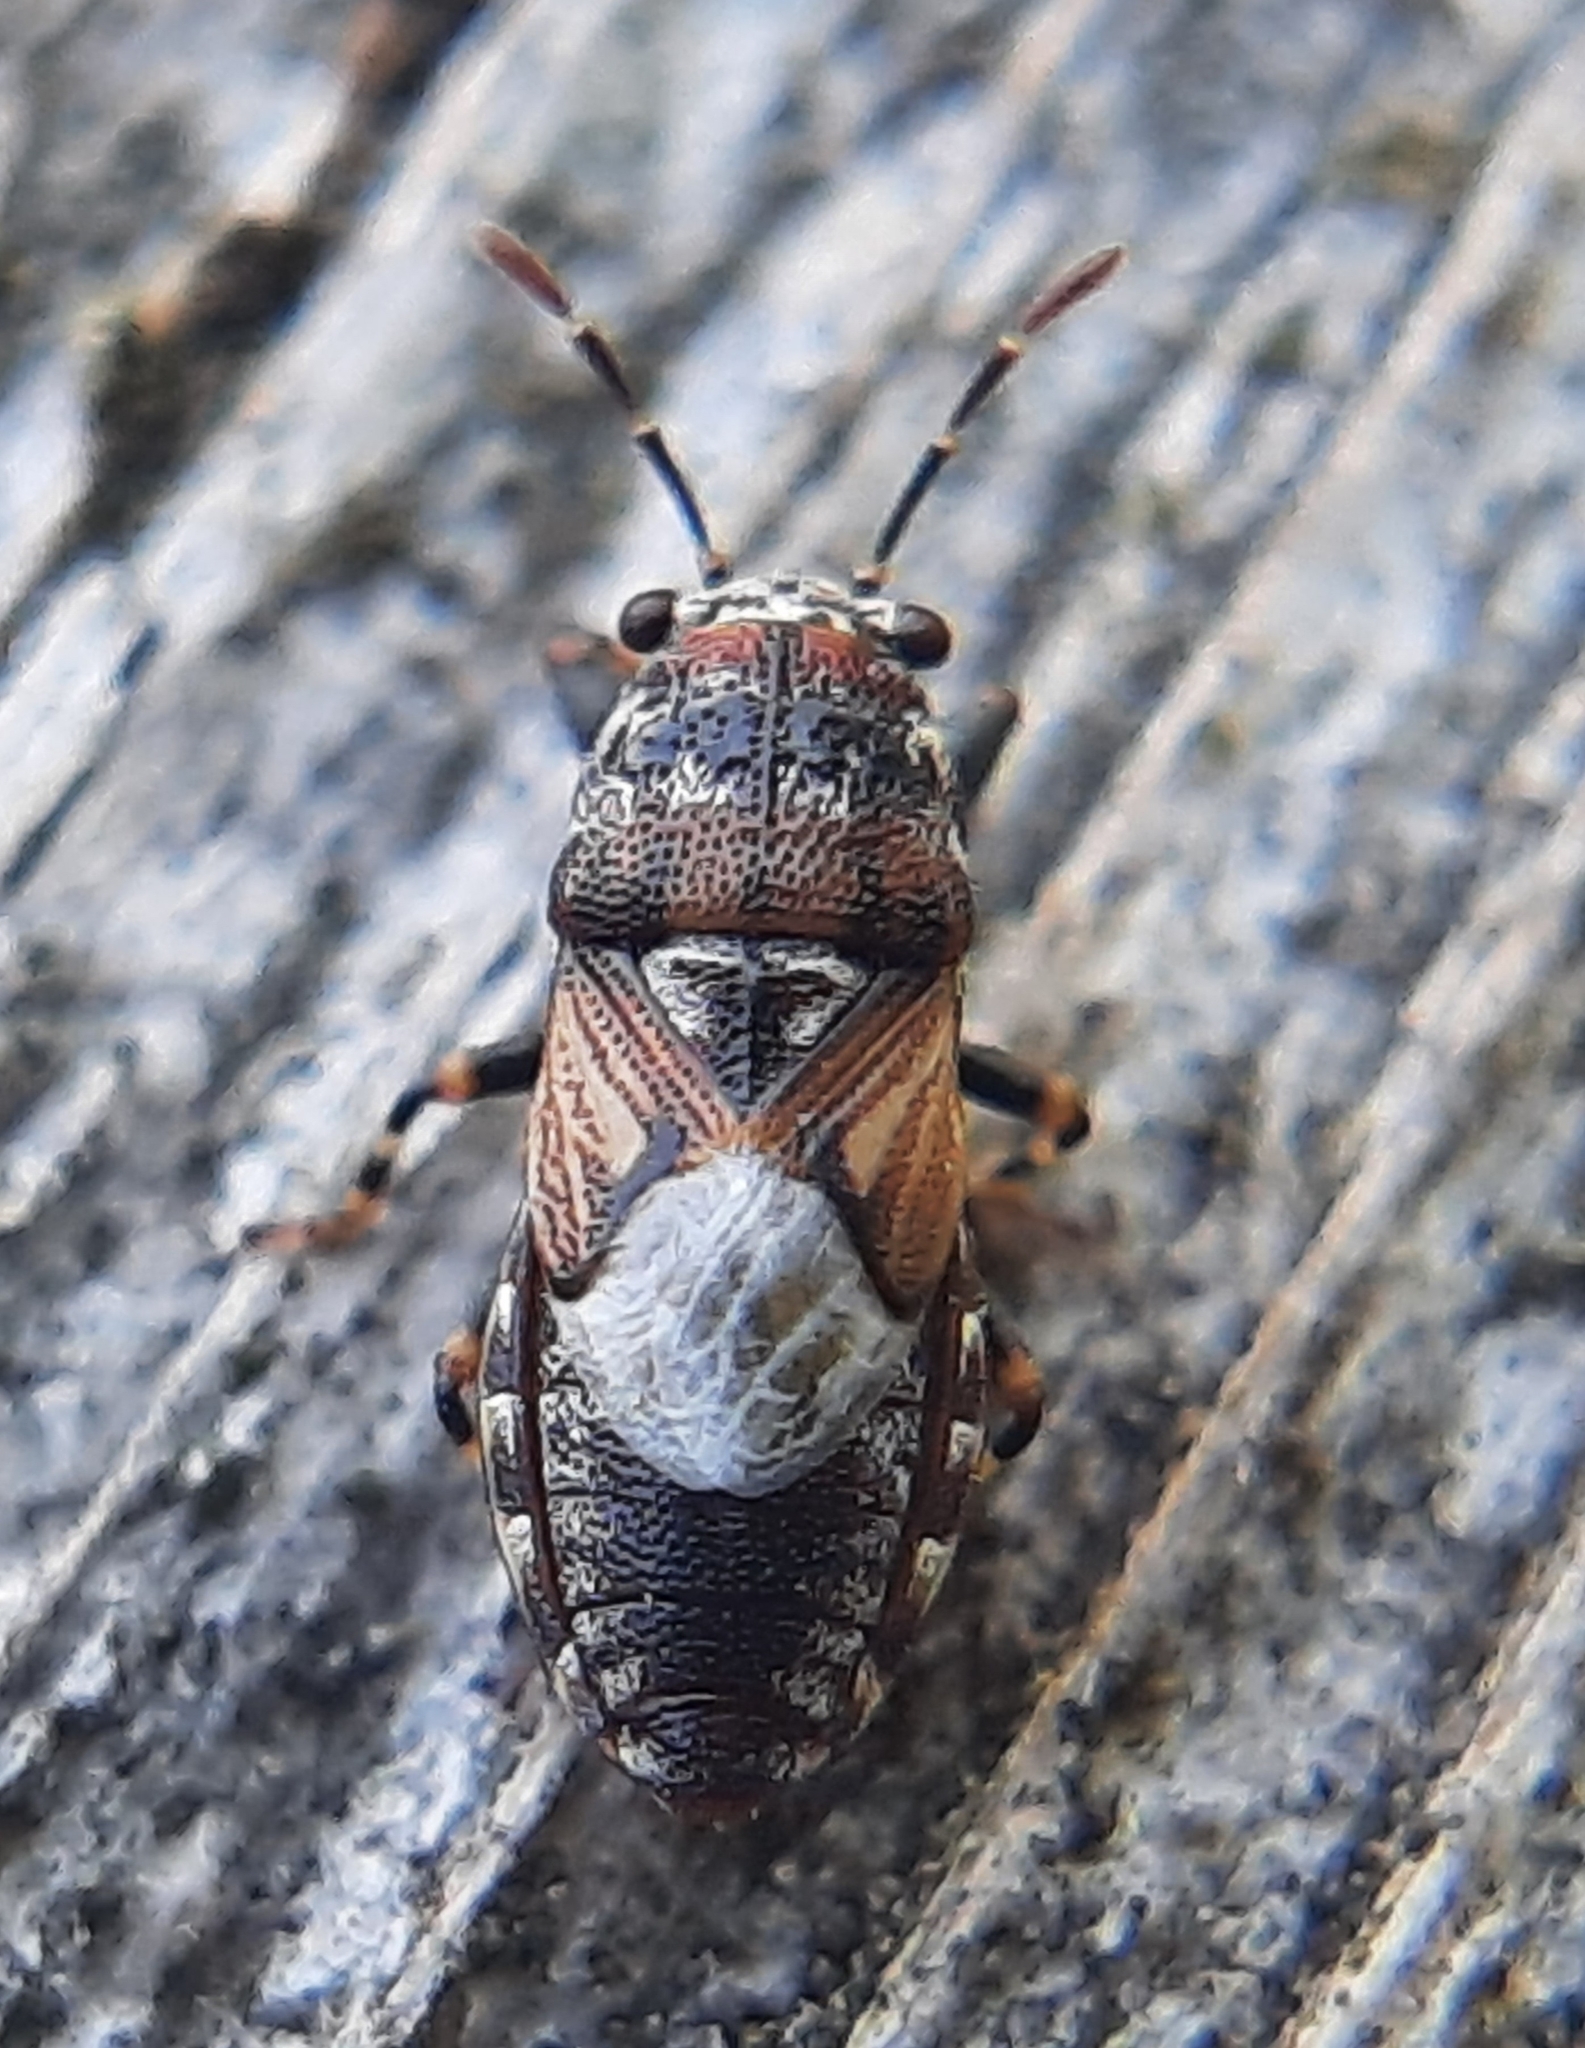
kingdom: Animalia
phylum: Arthropoda
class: Insecta
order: Hemiptera
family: Pachygronthidae
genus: Phlegyas
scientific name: Phlegyas abbreviatus
